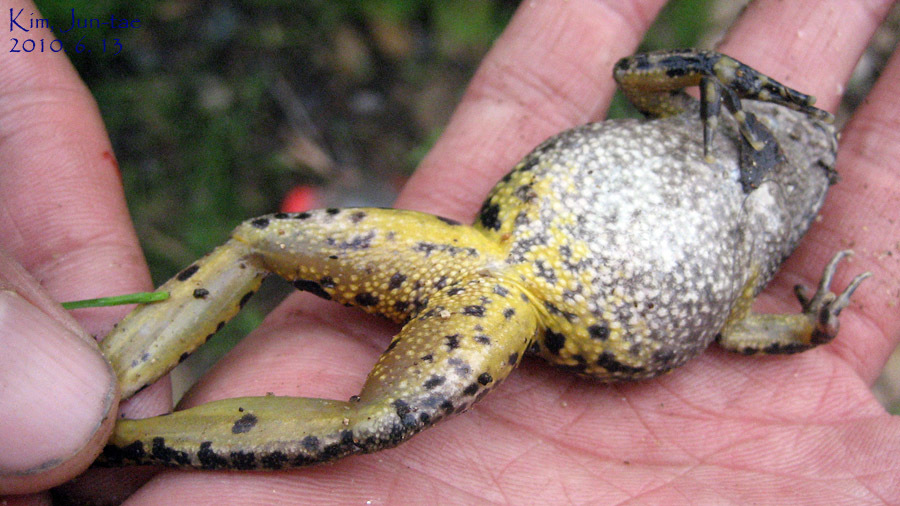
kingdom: Animalia
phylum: Chordata
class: Amphibia
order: Anura
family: Ranidae
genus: Glandirana
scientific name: Glandirana emeljanovi
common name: Northeast china rough-skinned frog
